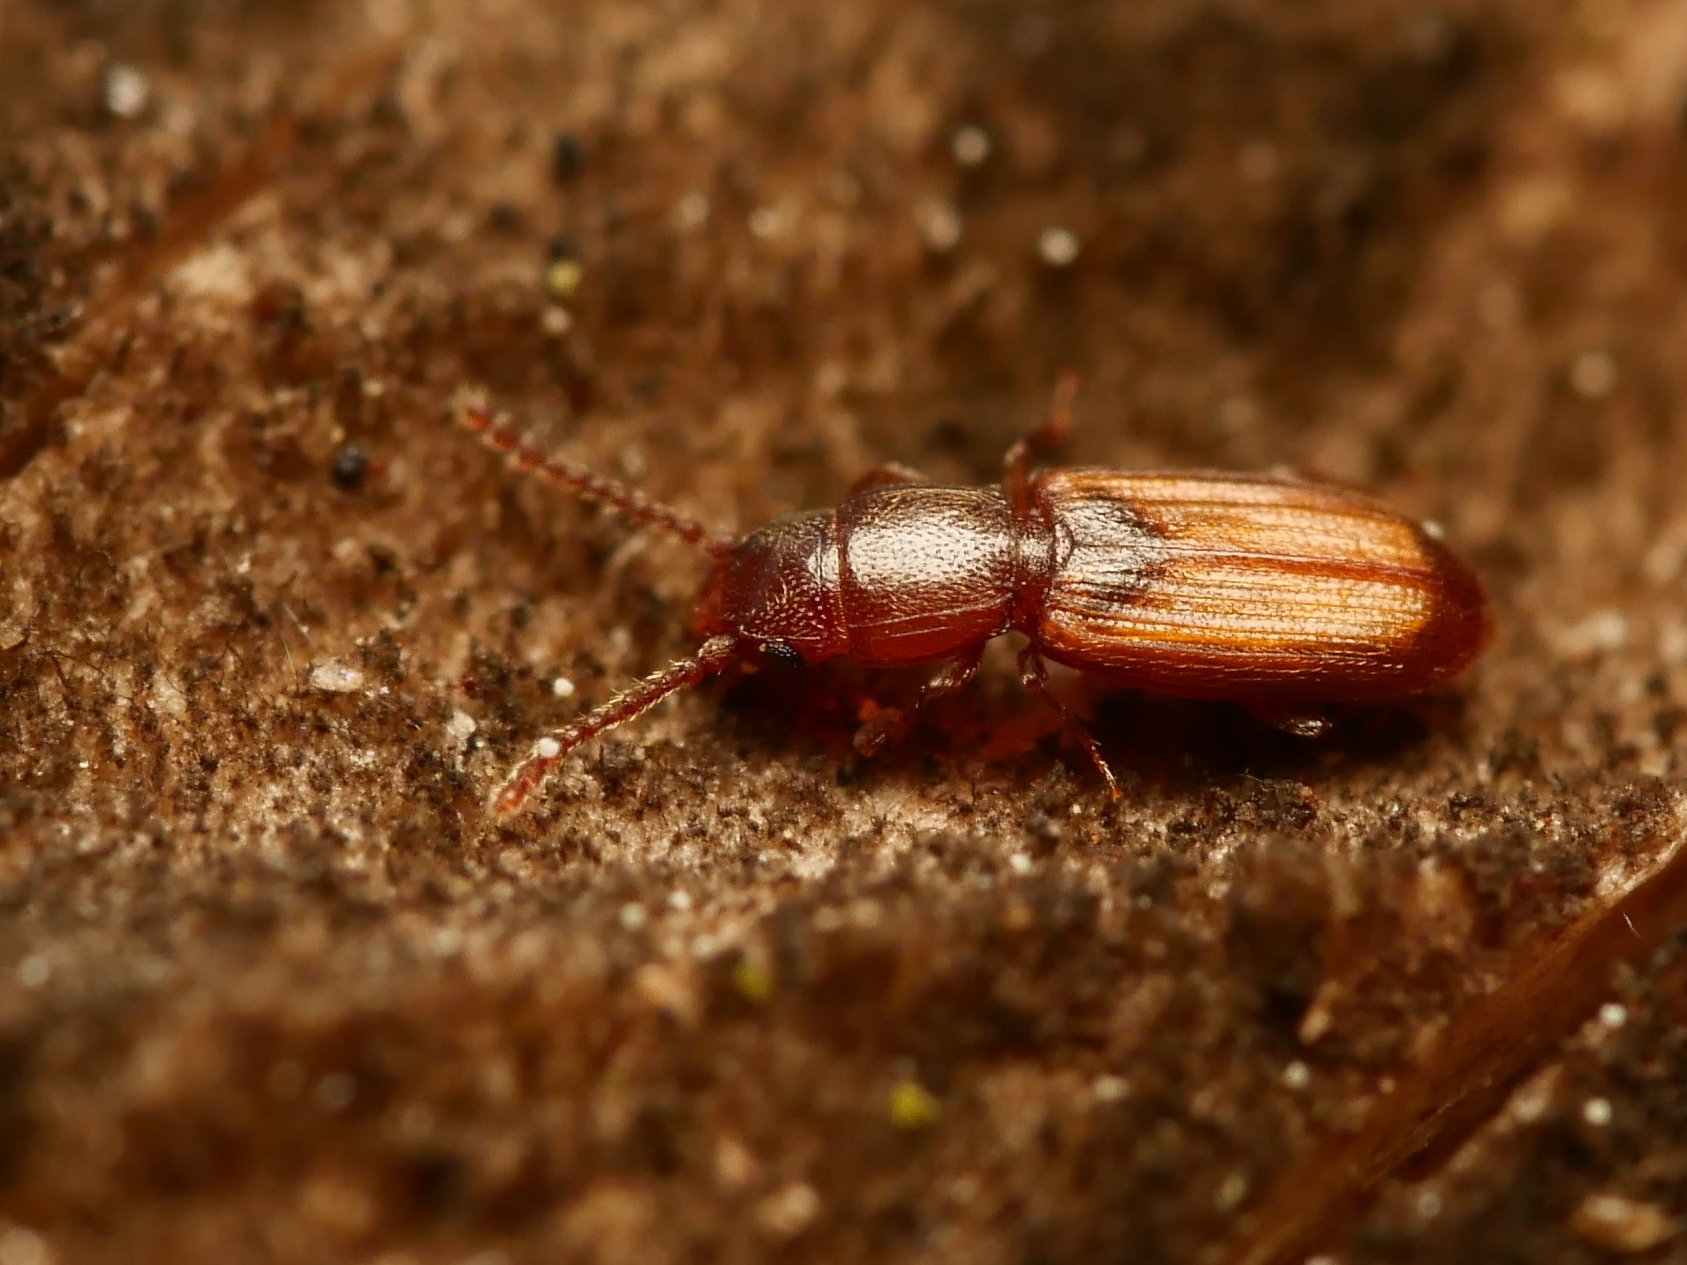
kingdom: Animalia
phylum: Arthropoda
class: Insecta
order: Coleoptera
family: Laemophloeidae
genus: Cryptolestes
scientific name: Cryptolestes duplicatus
